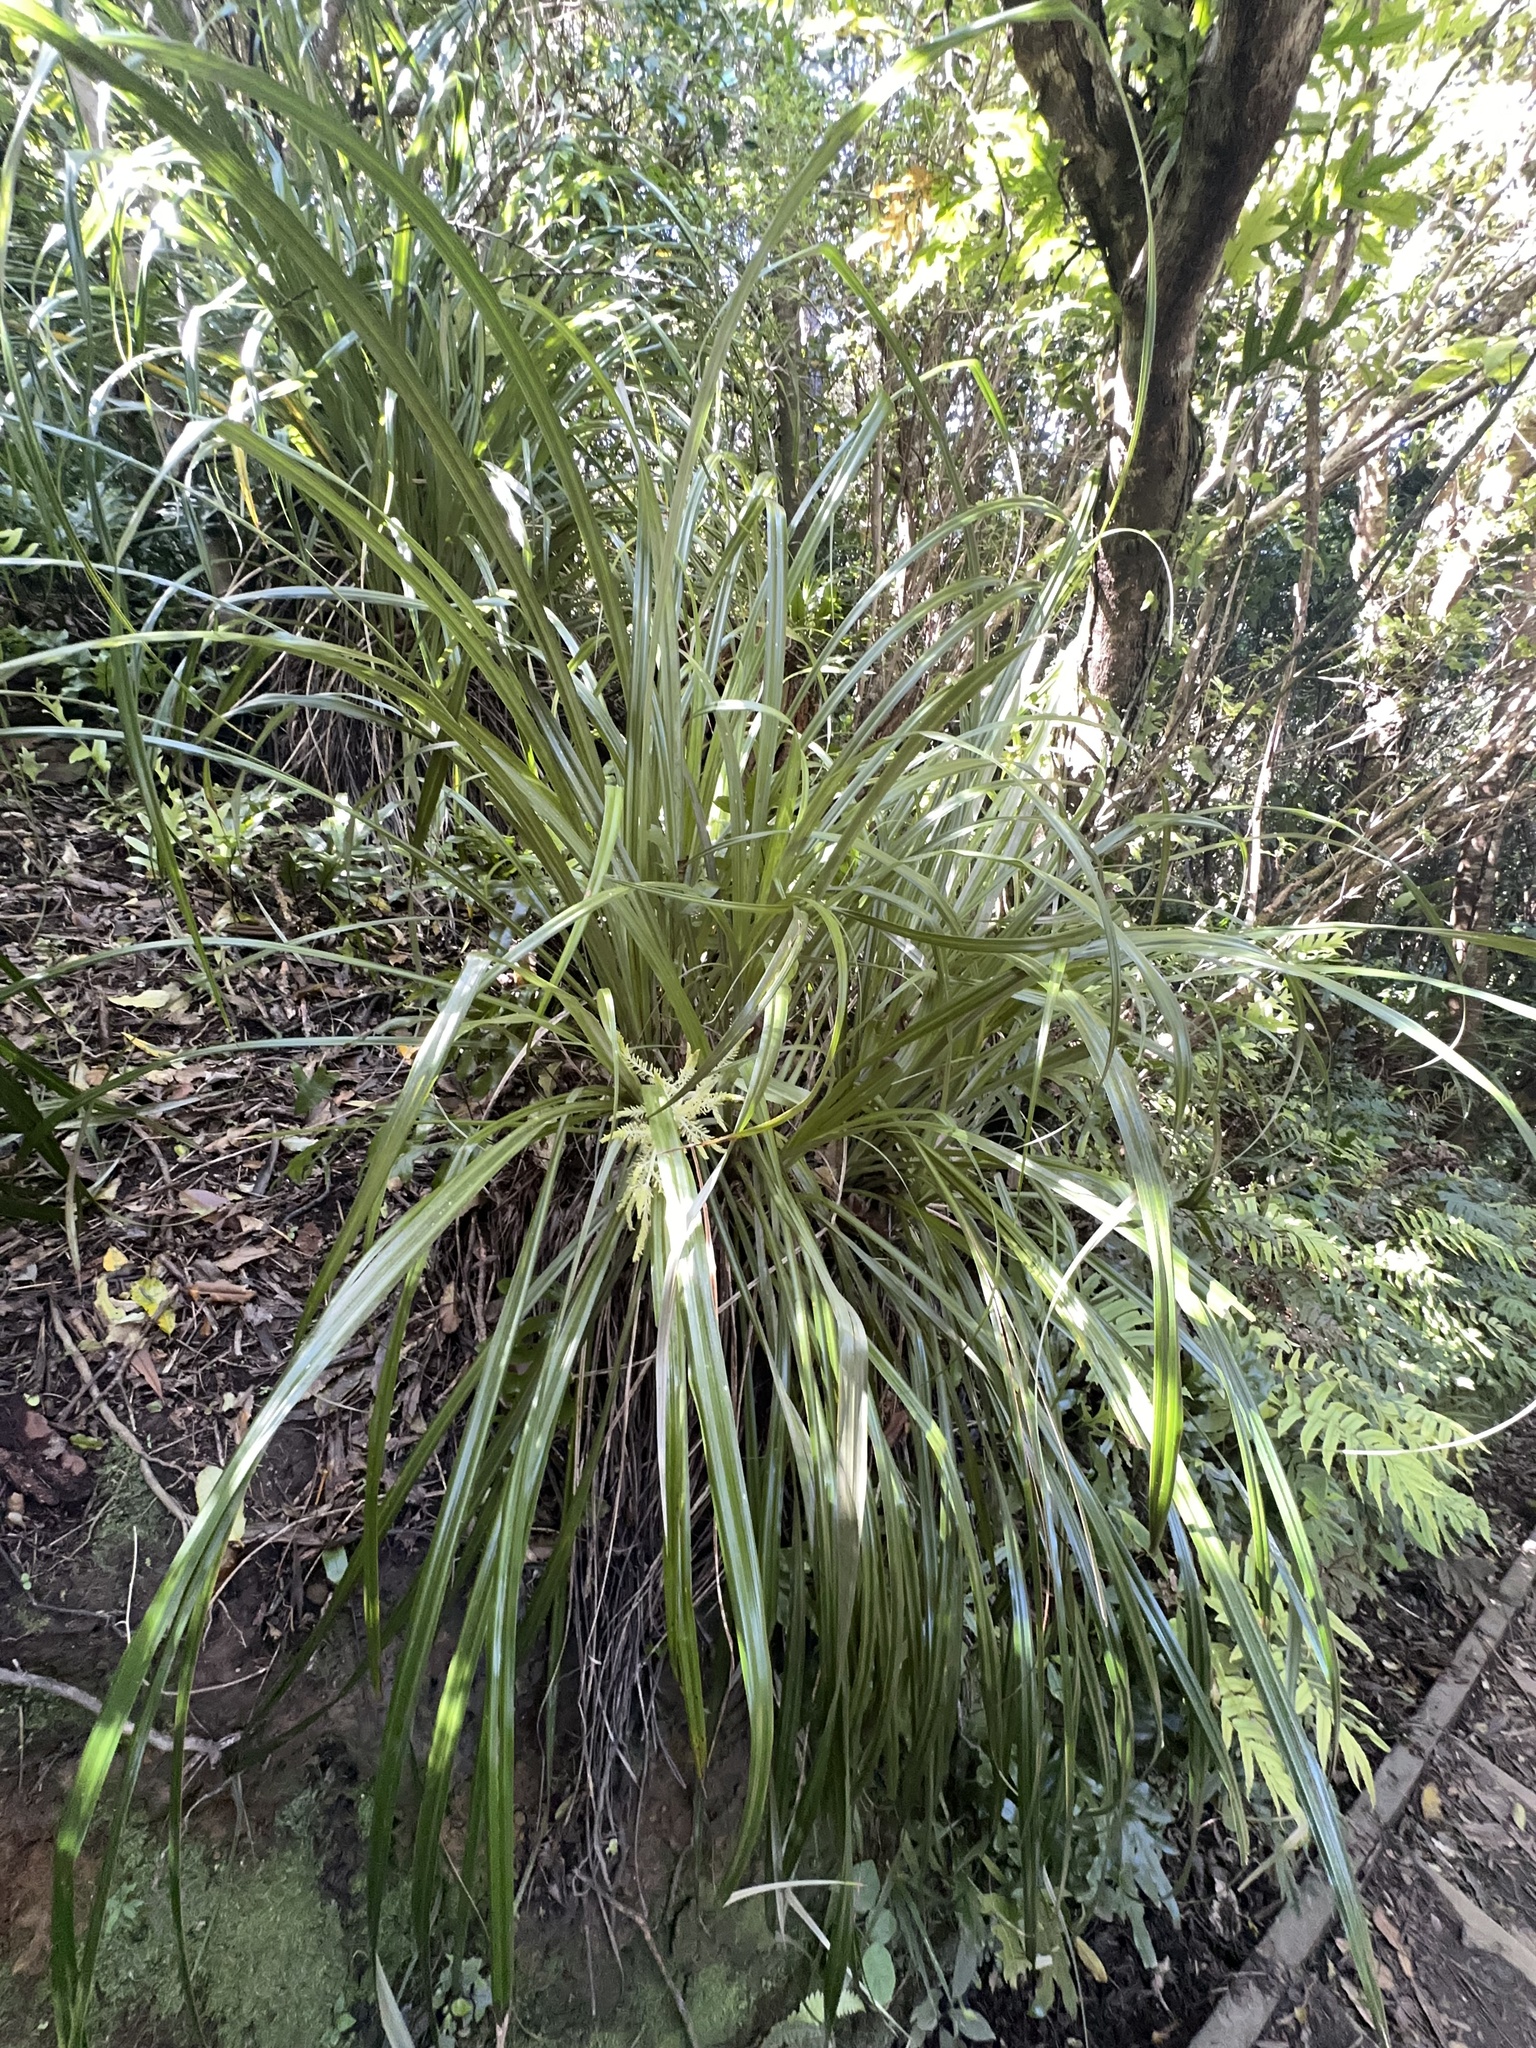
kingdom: Plantae
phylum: Tracheophyta
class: Liliopsida
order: Asparagales
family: Asteliaceae
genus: Astelia
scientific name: Astelia solandri
